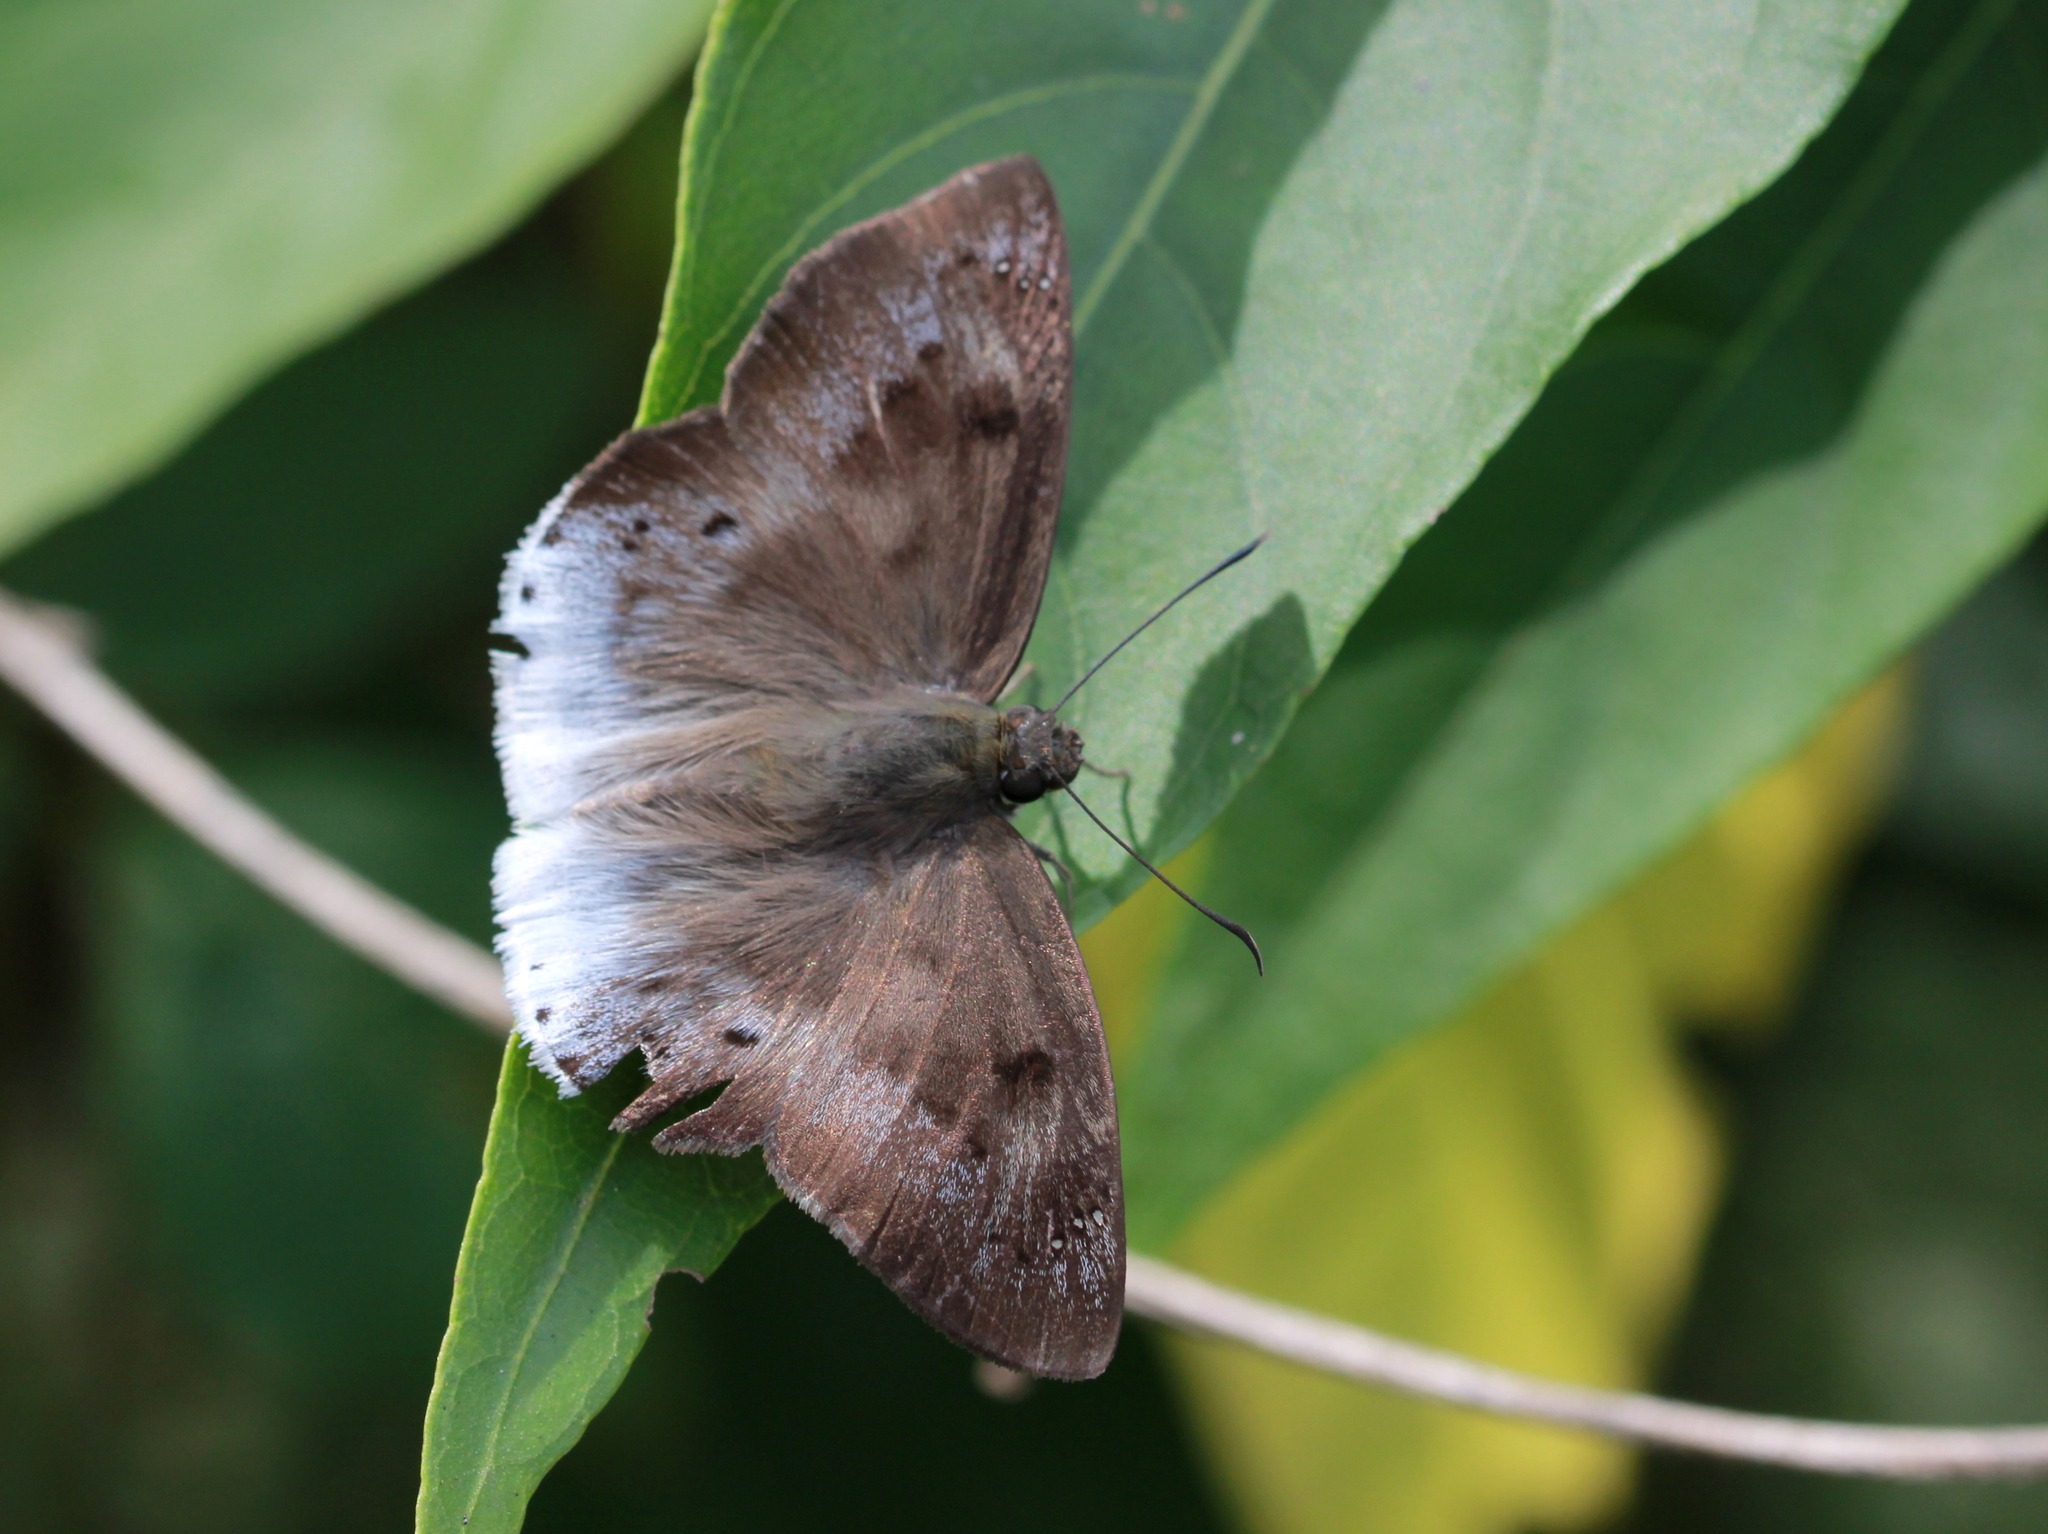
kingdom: Animalia
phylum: Arthropoda
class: Insecta
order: Lepidoptera
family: Hesperiidae
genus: Tagiades
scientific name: Tagiades japetus
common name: Pied flat
